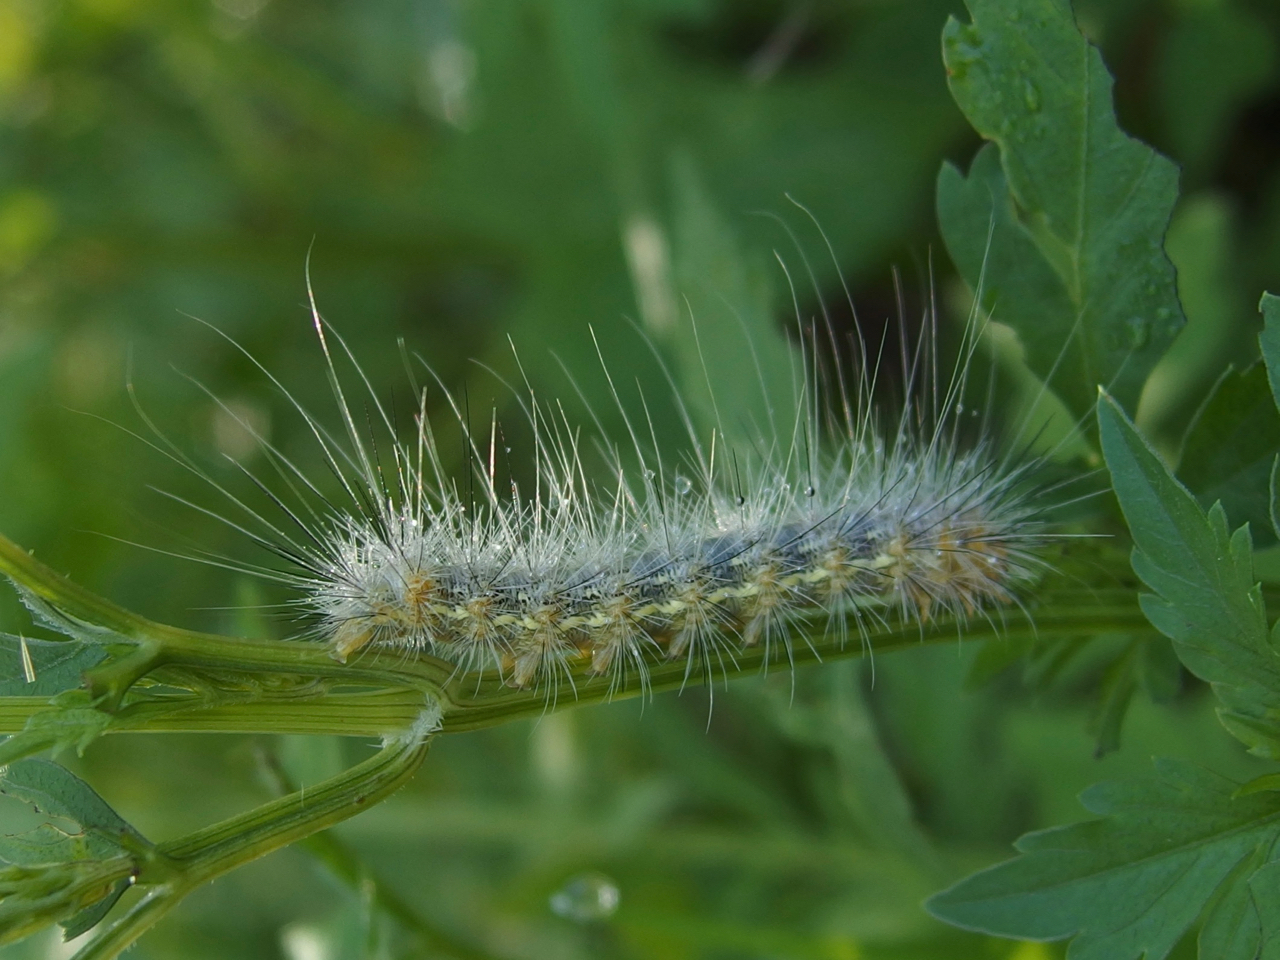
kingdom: Animalia
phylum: Arthropoda
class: Insecta
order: Lepidoptera
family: Erebidae
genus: Hypercompe
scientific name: Hypercompe suffusa
